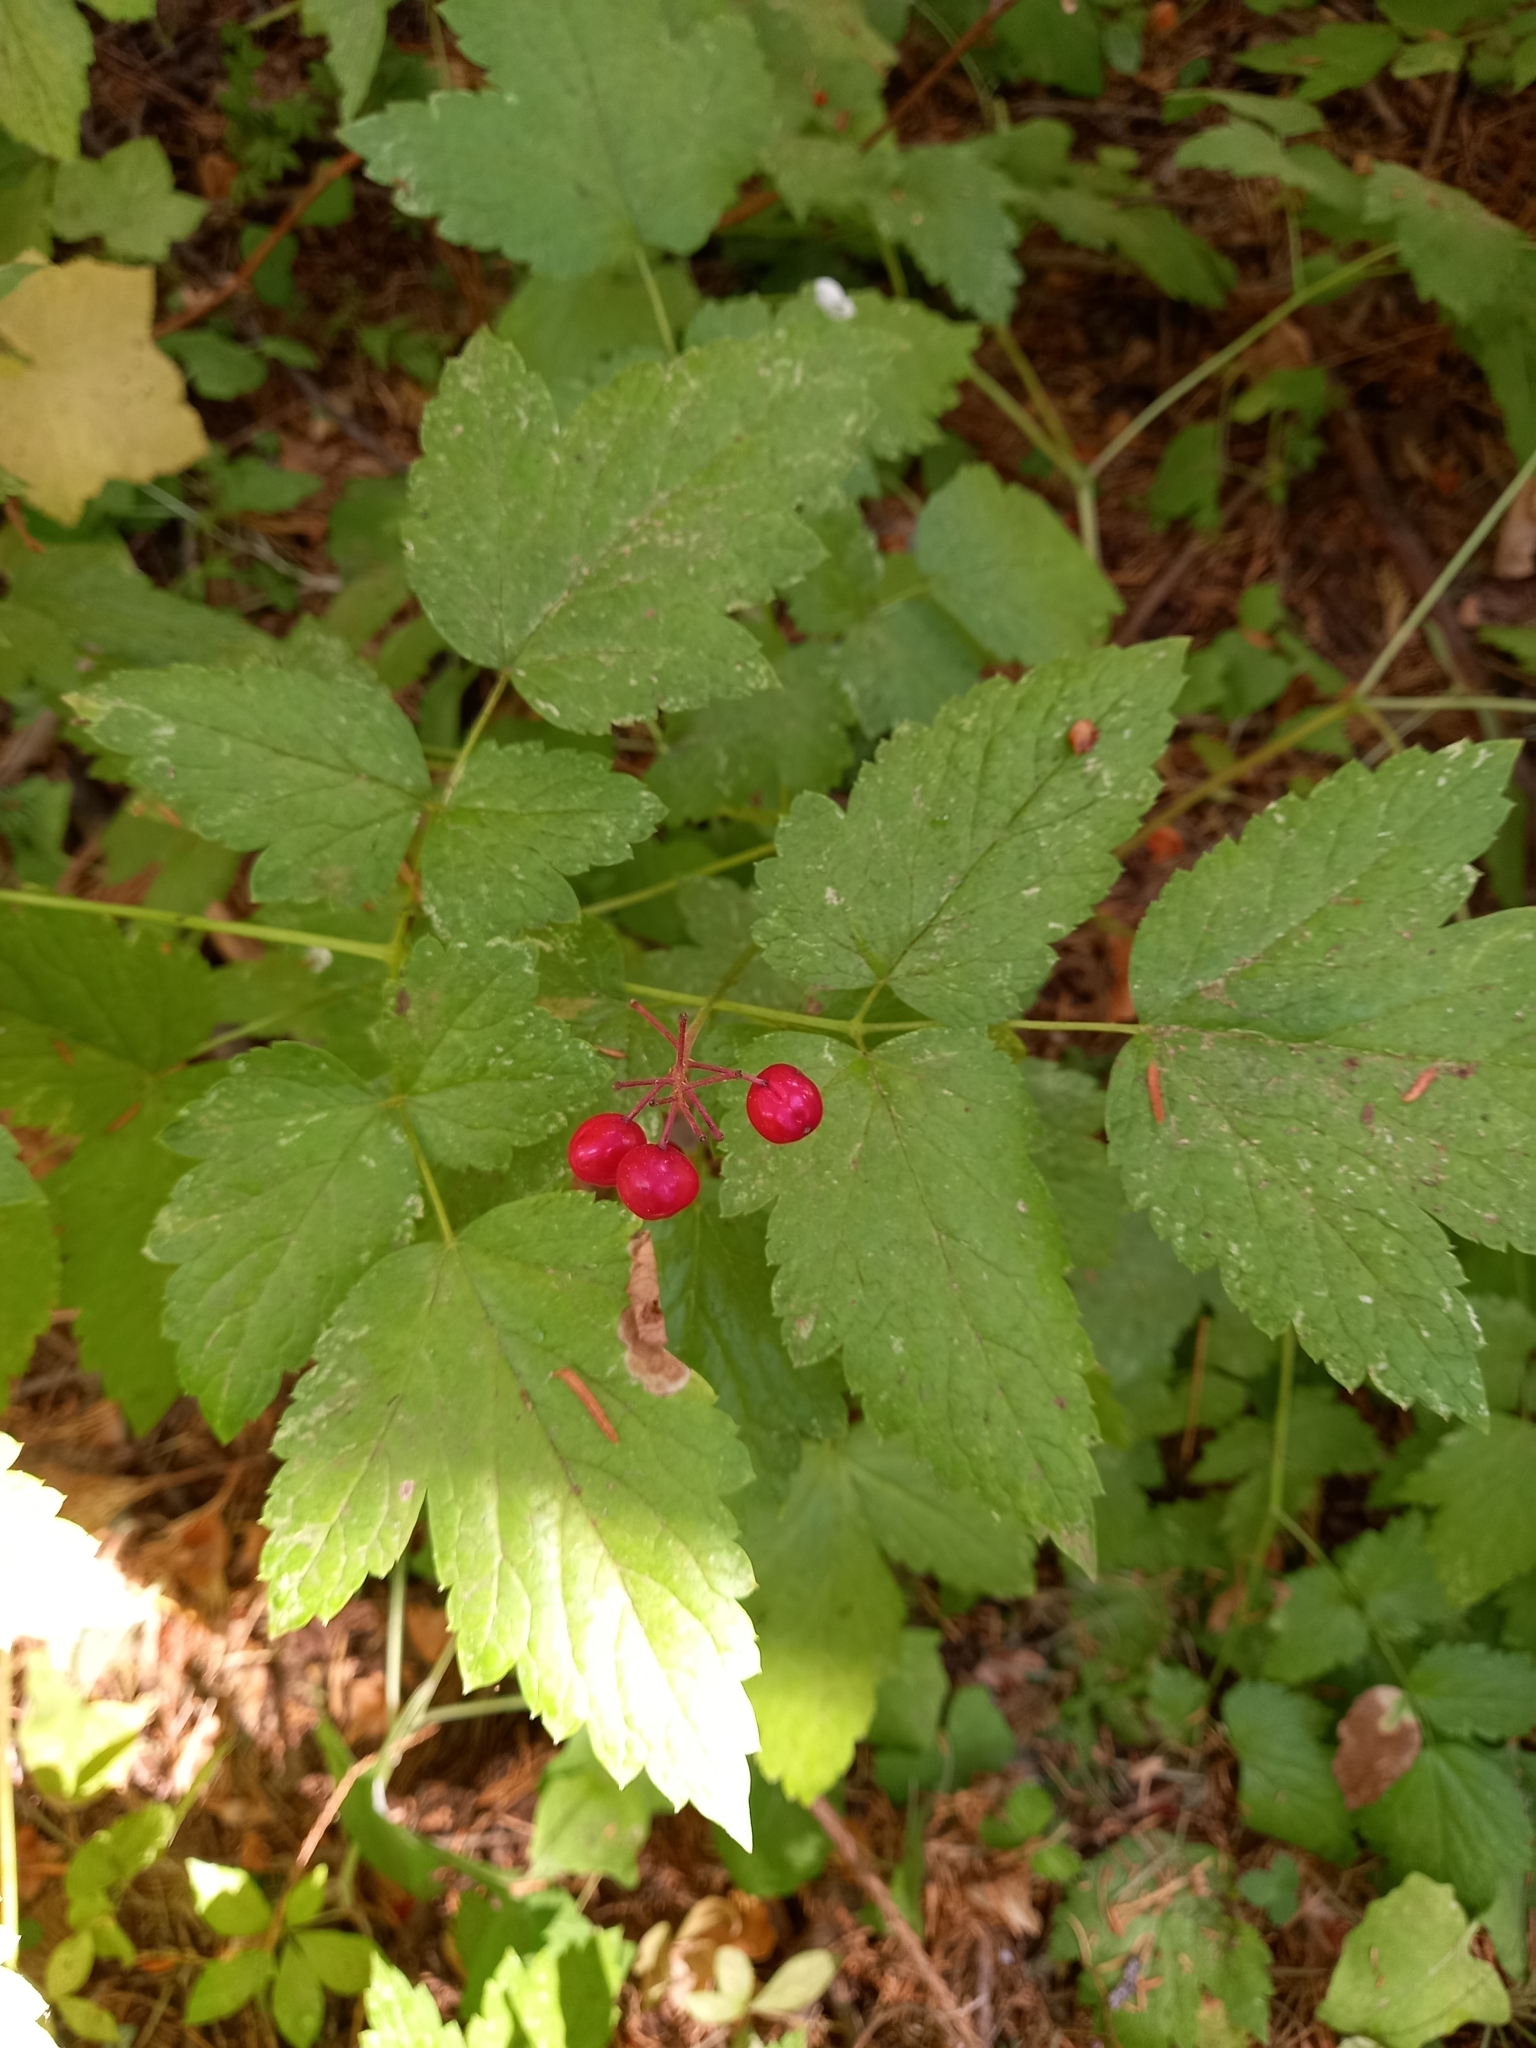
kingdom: Plantae
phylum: Tracheophyta
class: Magnoliopsida
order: Ranunculales
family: Ranunculaceae
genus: Actaea
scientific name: Actaea rubra
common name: Red baneberry
